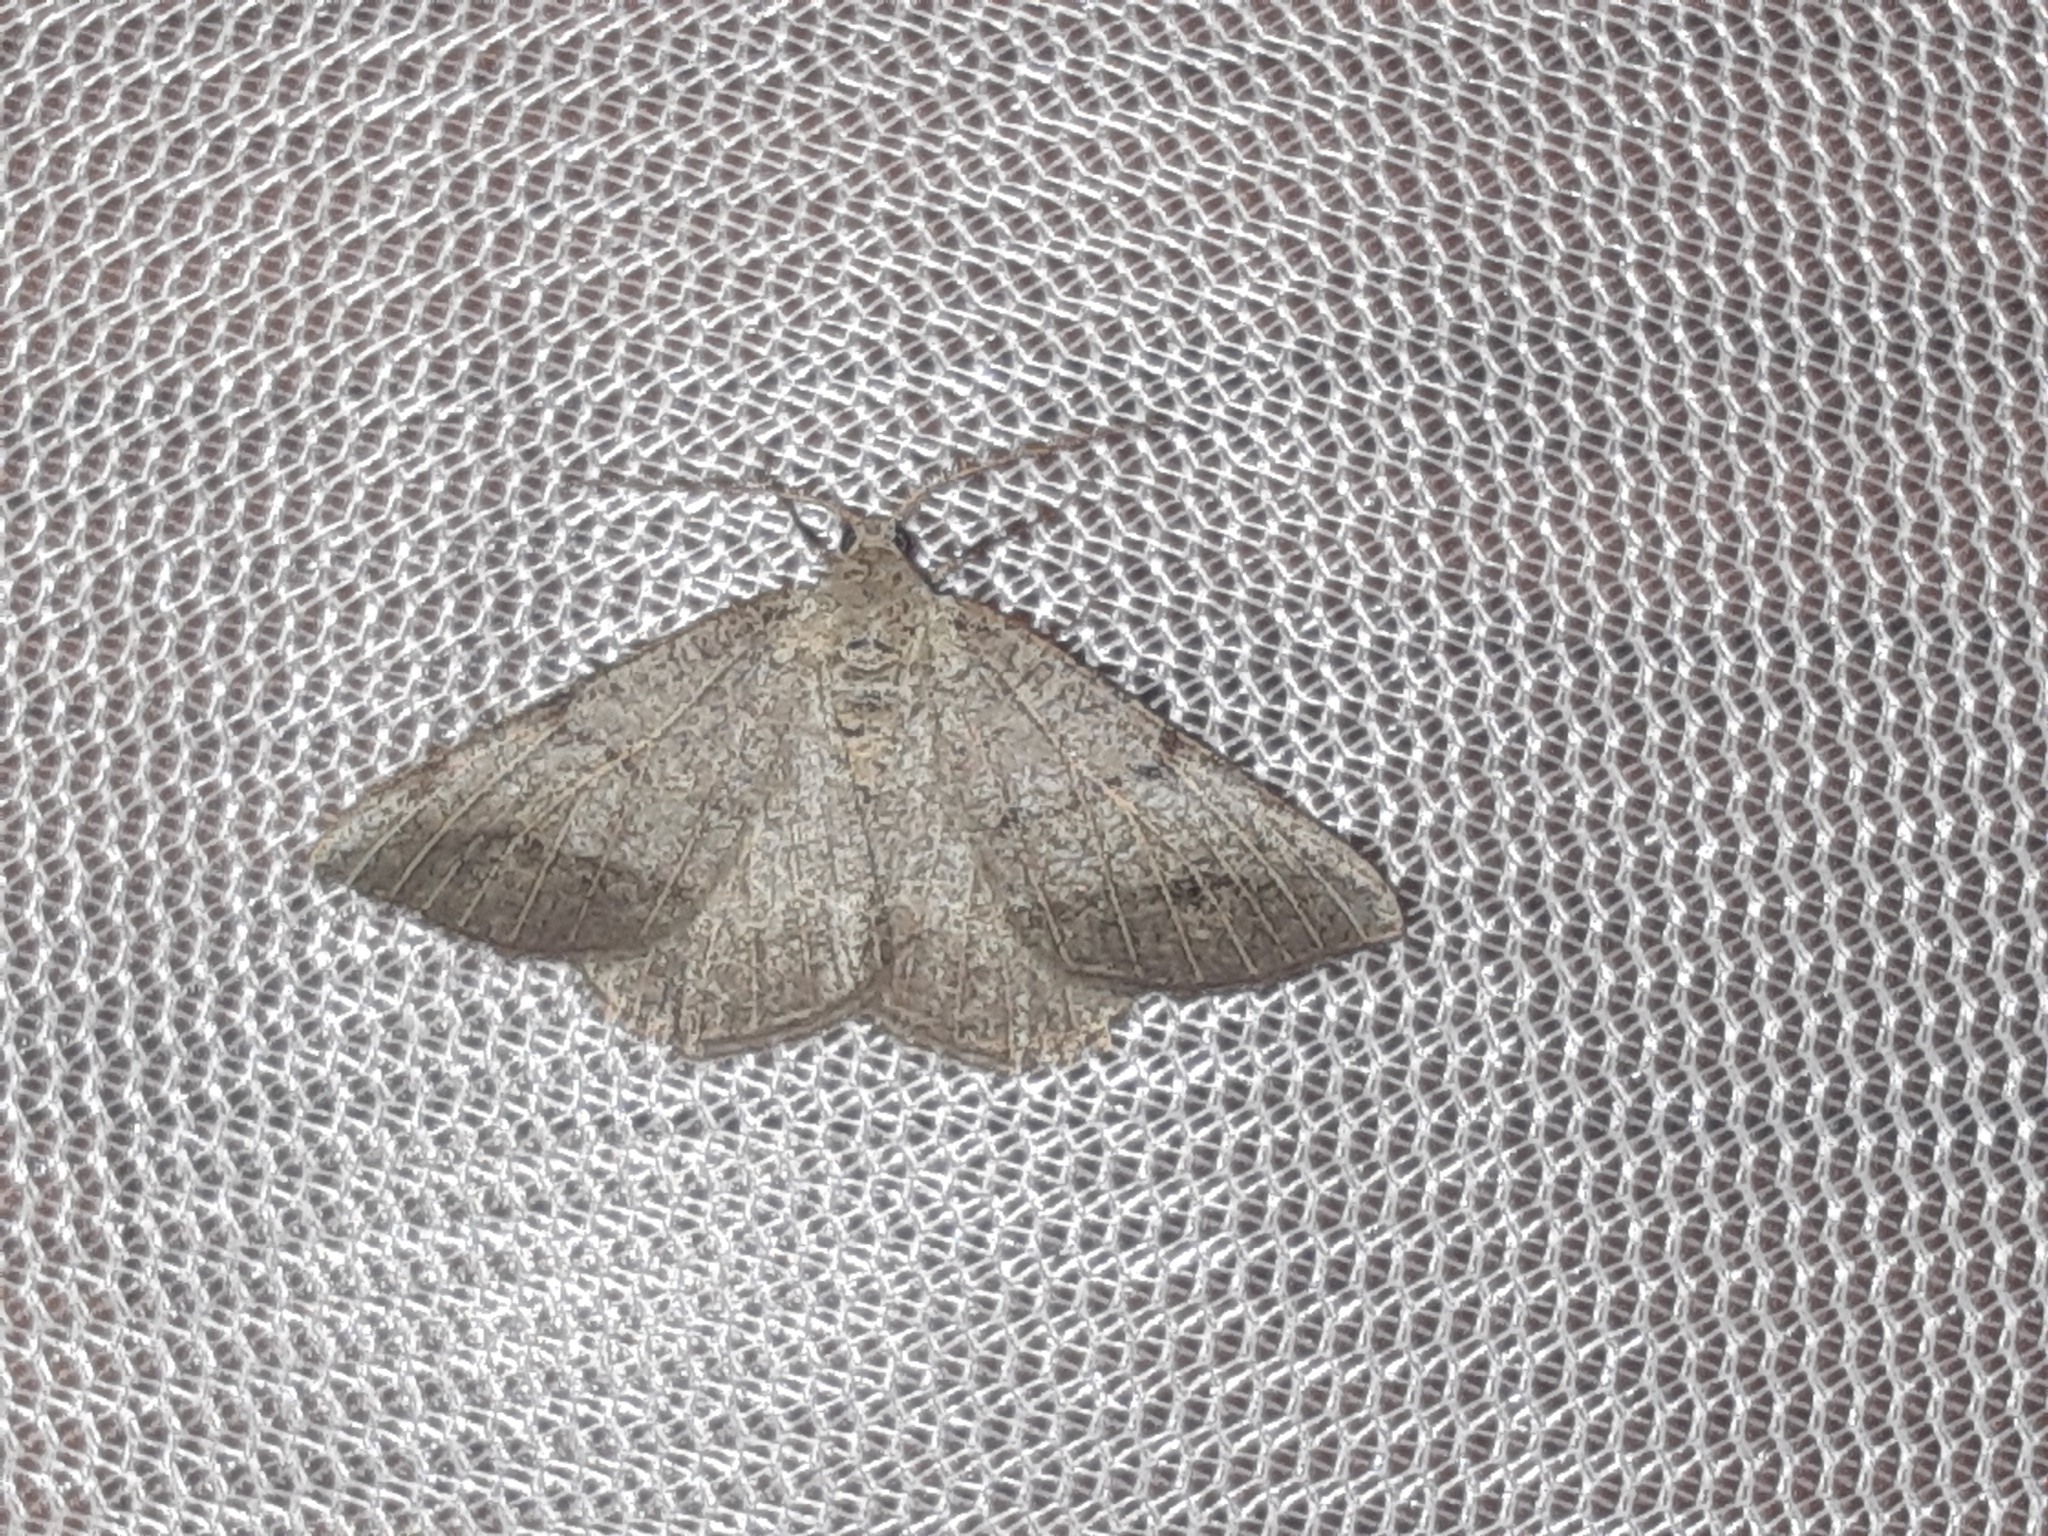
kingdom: Animalia
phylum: Arthropoda
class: Insecta
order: Lepidoptera
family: Geometridae
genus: Isturgia
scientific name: Isturgia dislocaria
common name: Pale-viened enconista
